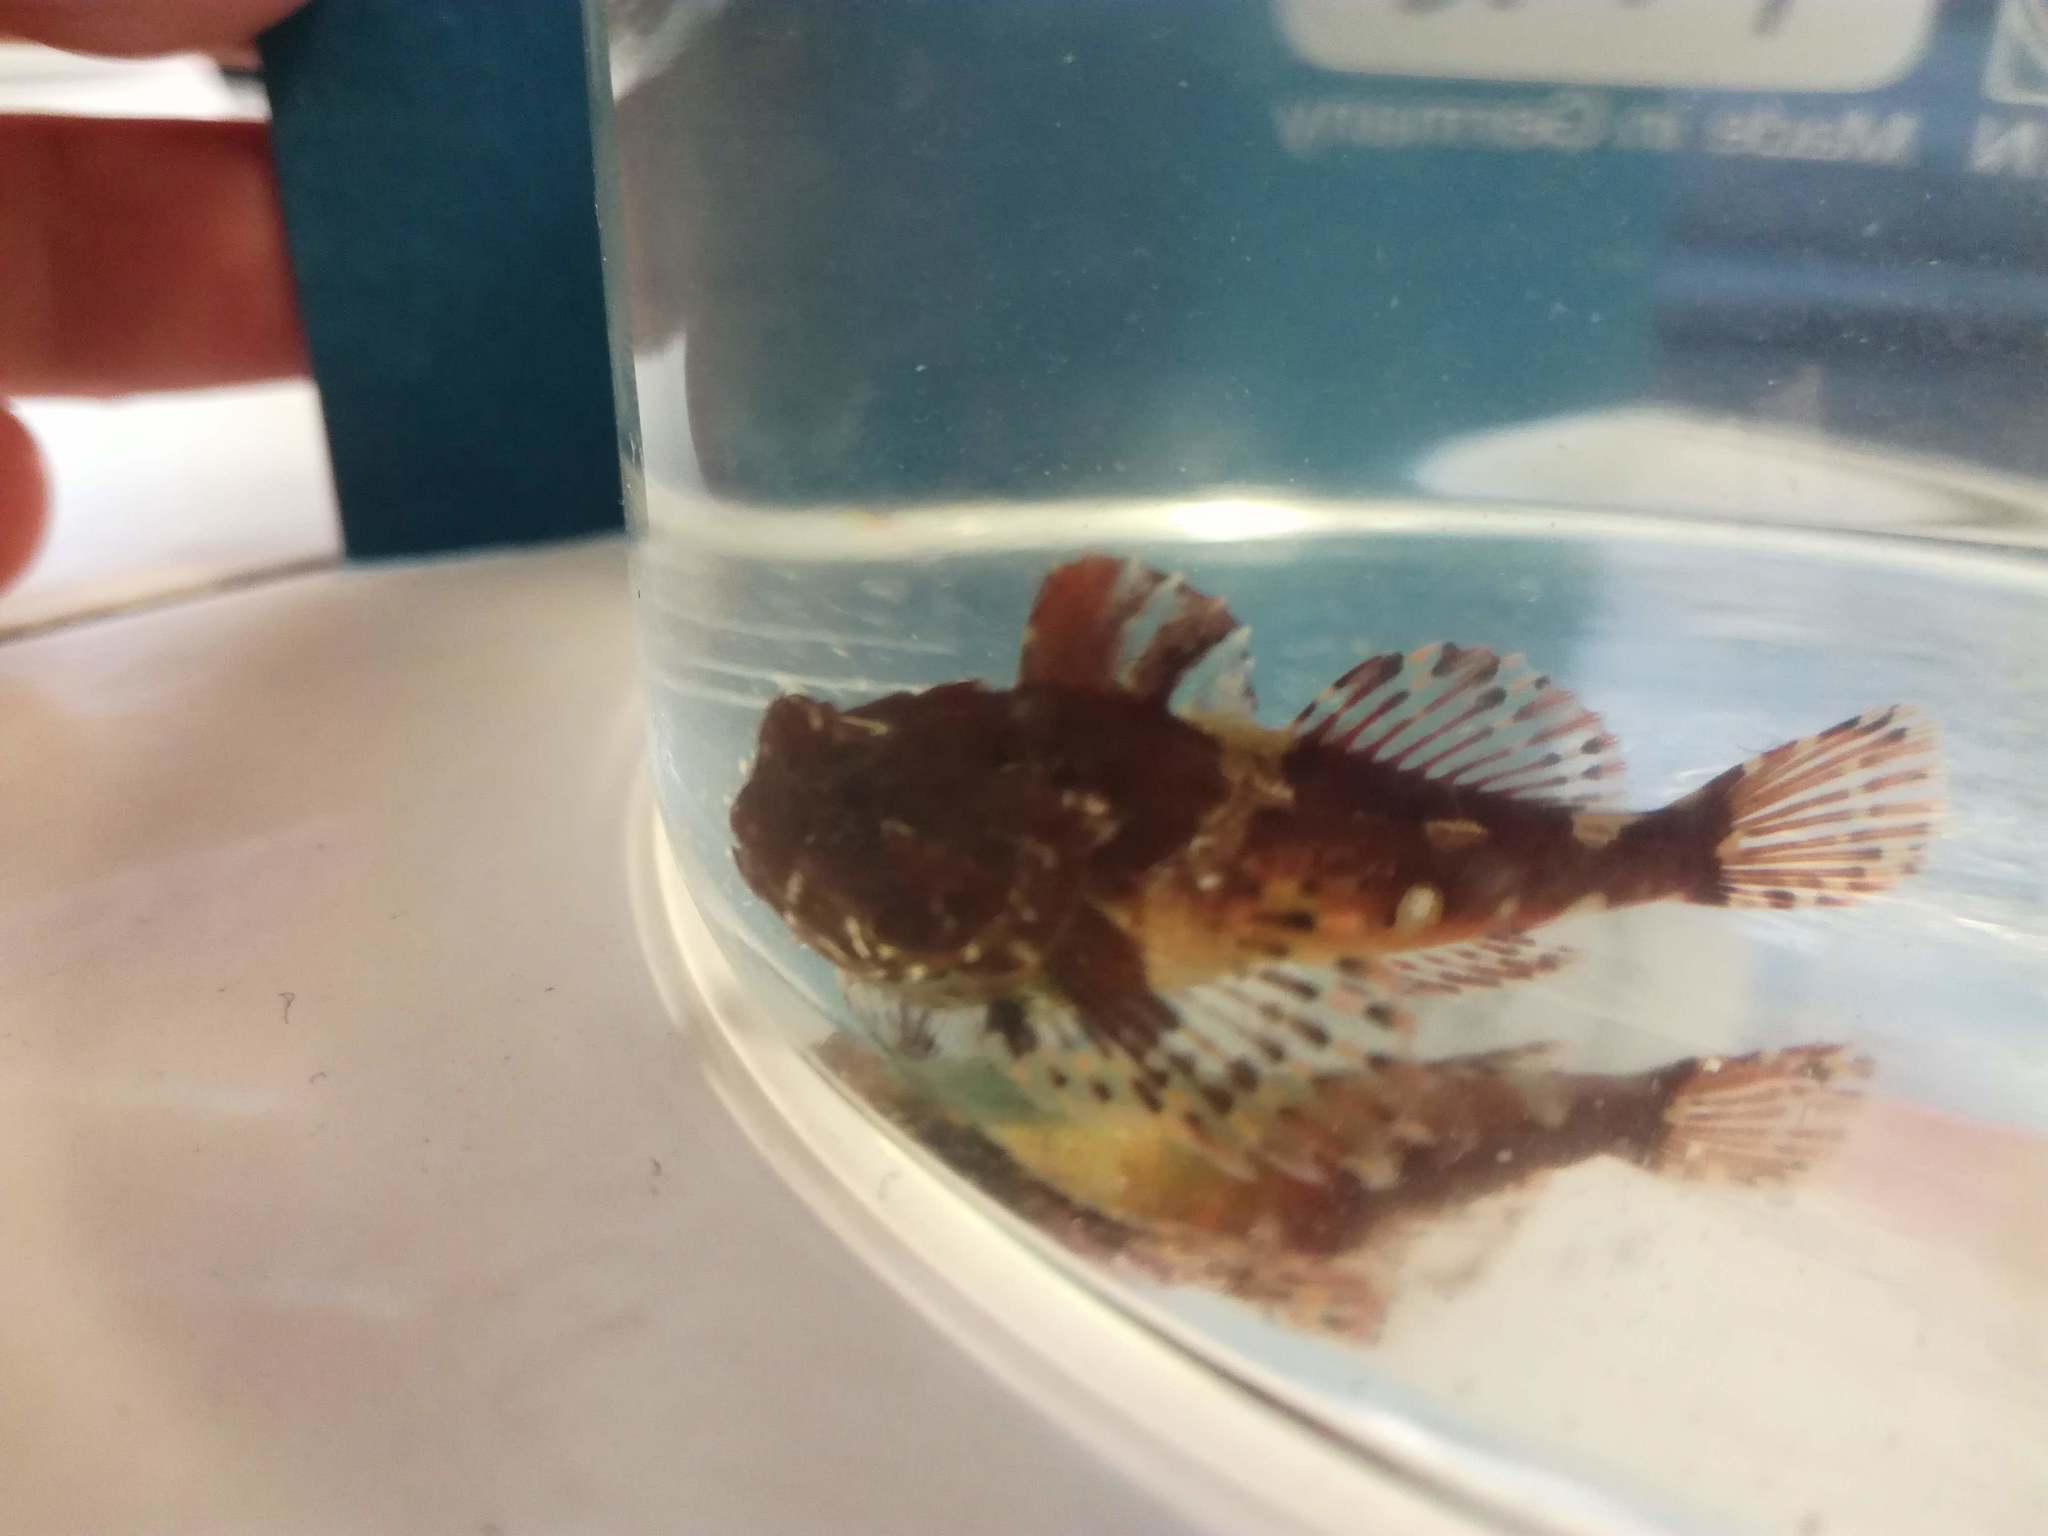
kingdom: Animalia
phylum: Chordata
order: Scorpaeniformes
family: Cottidae
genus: Taurulus
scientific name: Taurulus bubalis
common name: Sea scorpion
